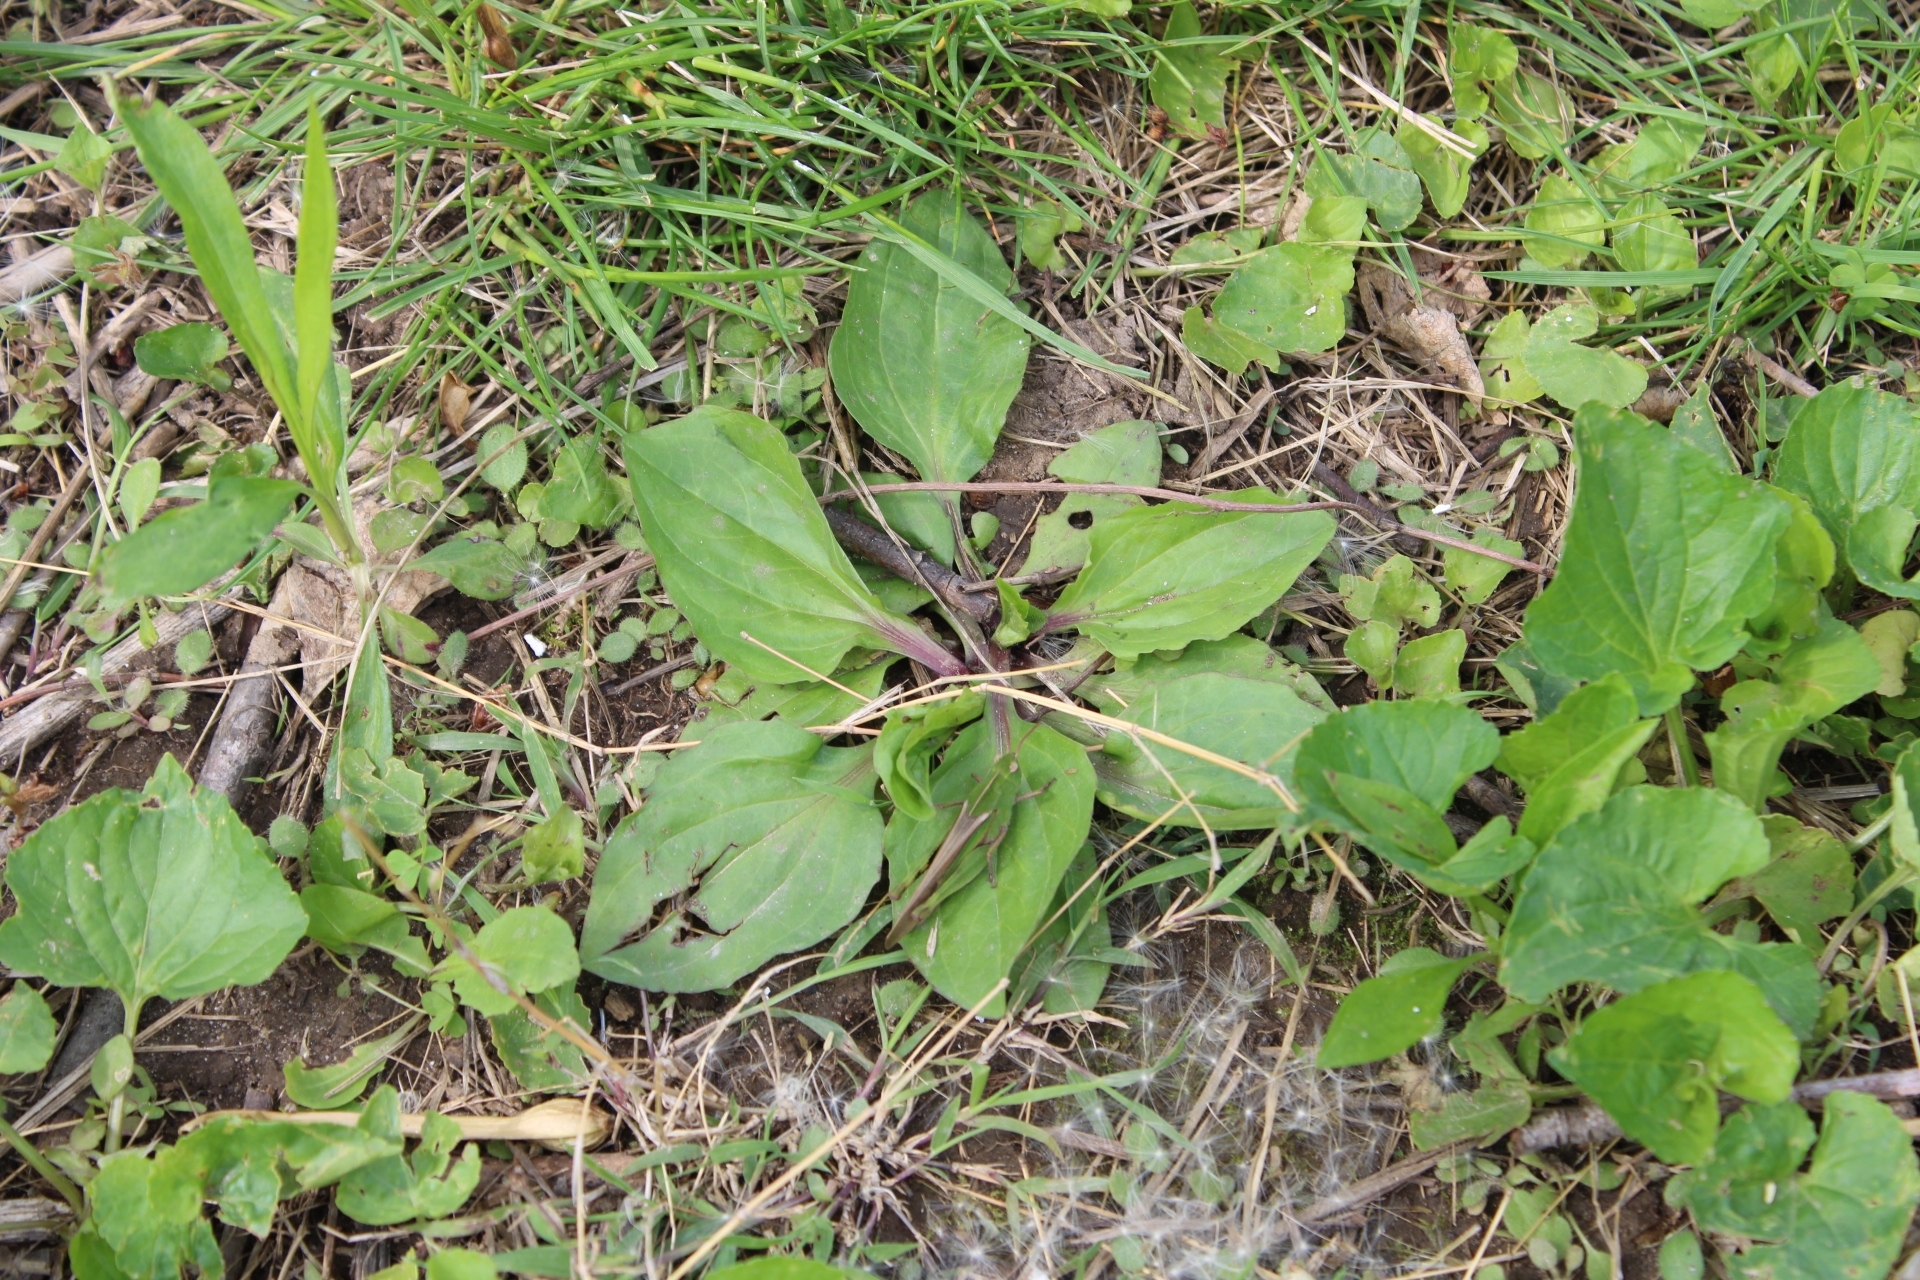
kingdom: Animalia
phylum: Arthropoda
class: Insecta
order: Orthoptera
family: Acrididae
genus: Chortophaga
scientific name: Chortophaga viridifasciata
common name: Green-striped grasshopper
